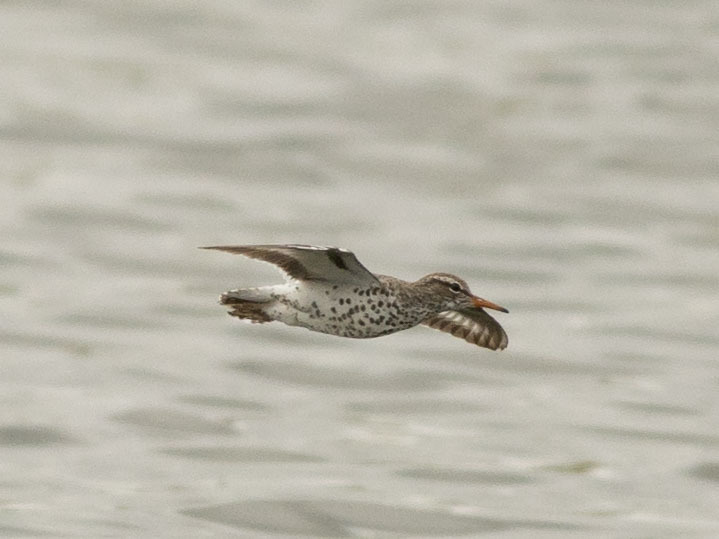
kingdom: Animalia
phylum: Chordata
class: Aves
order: Charadriiformes
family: Scolopacidae
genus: Actitis
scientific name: Actitis macularius
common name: Spotted sandpiper
